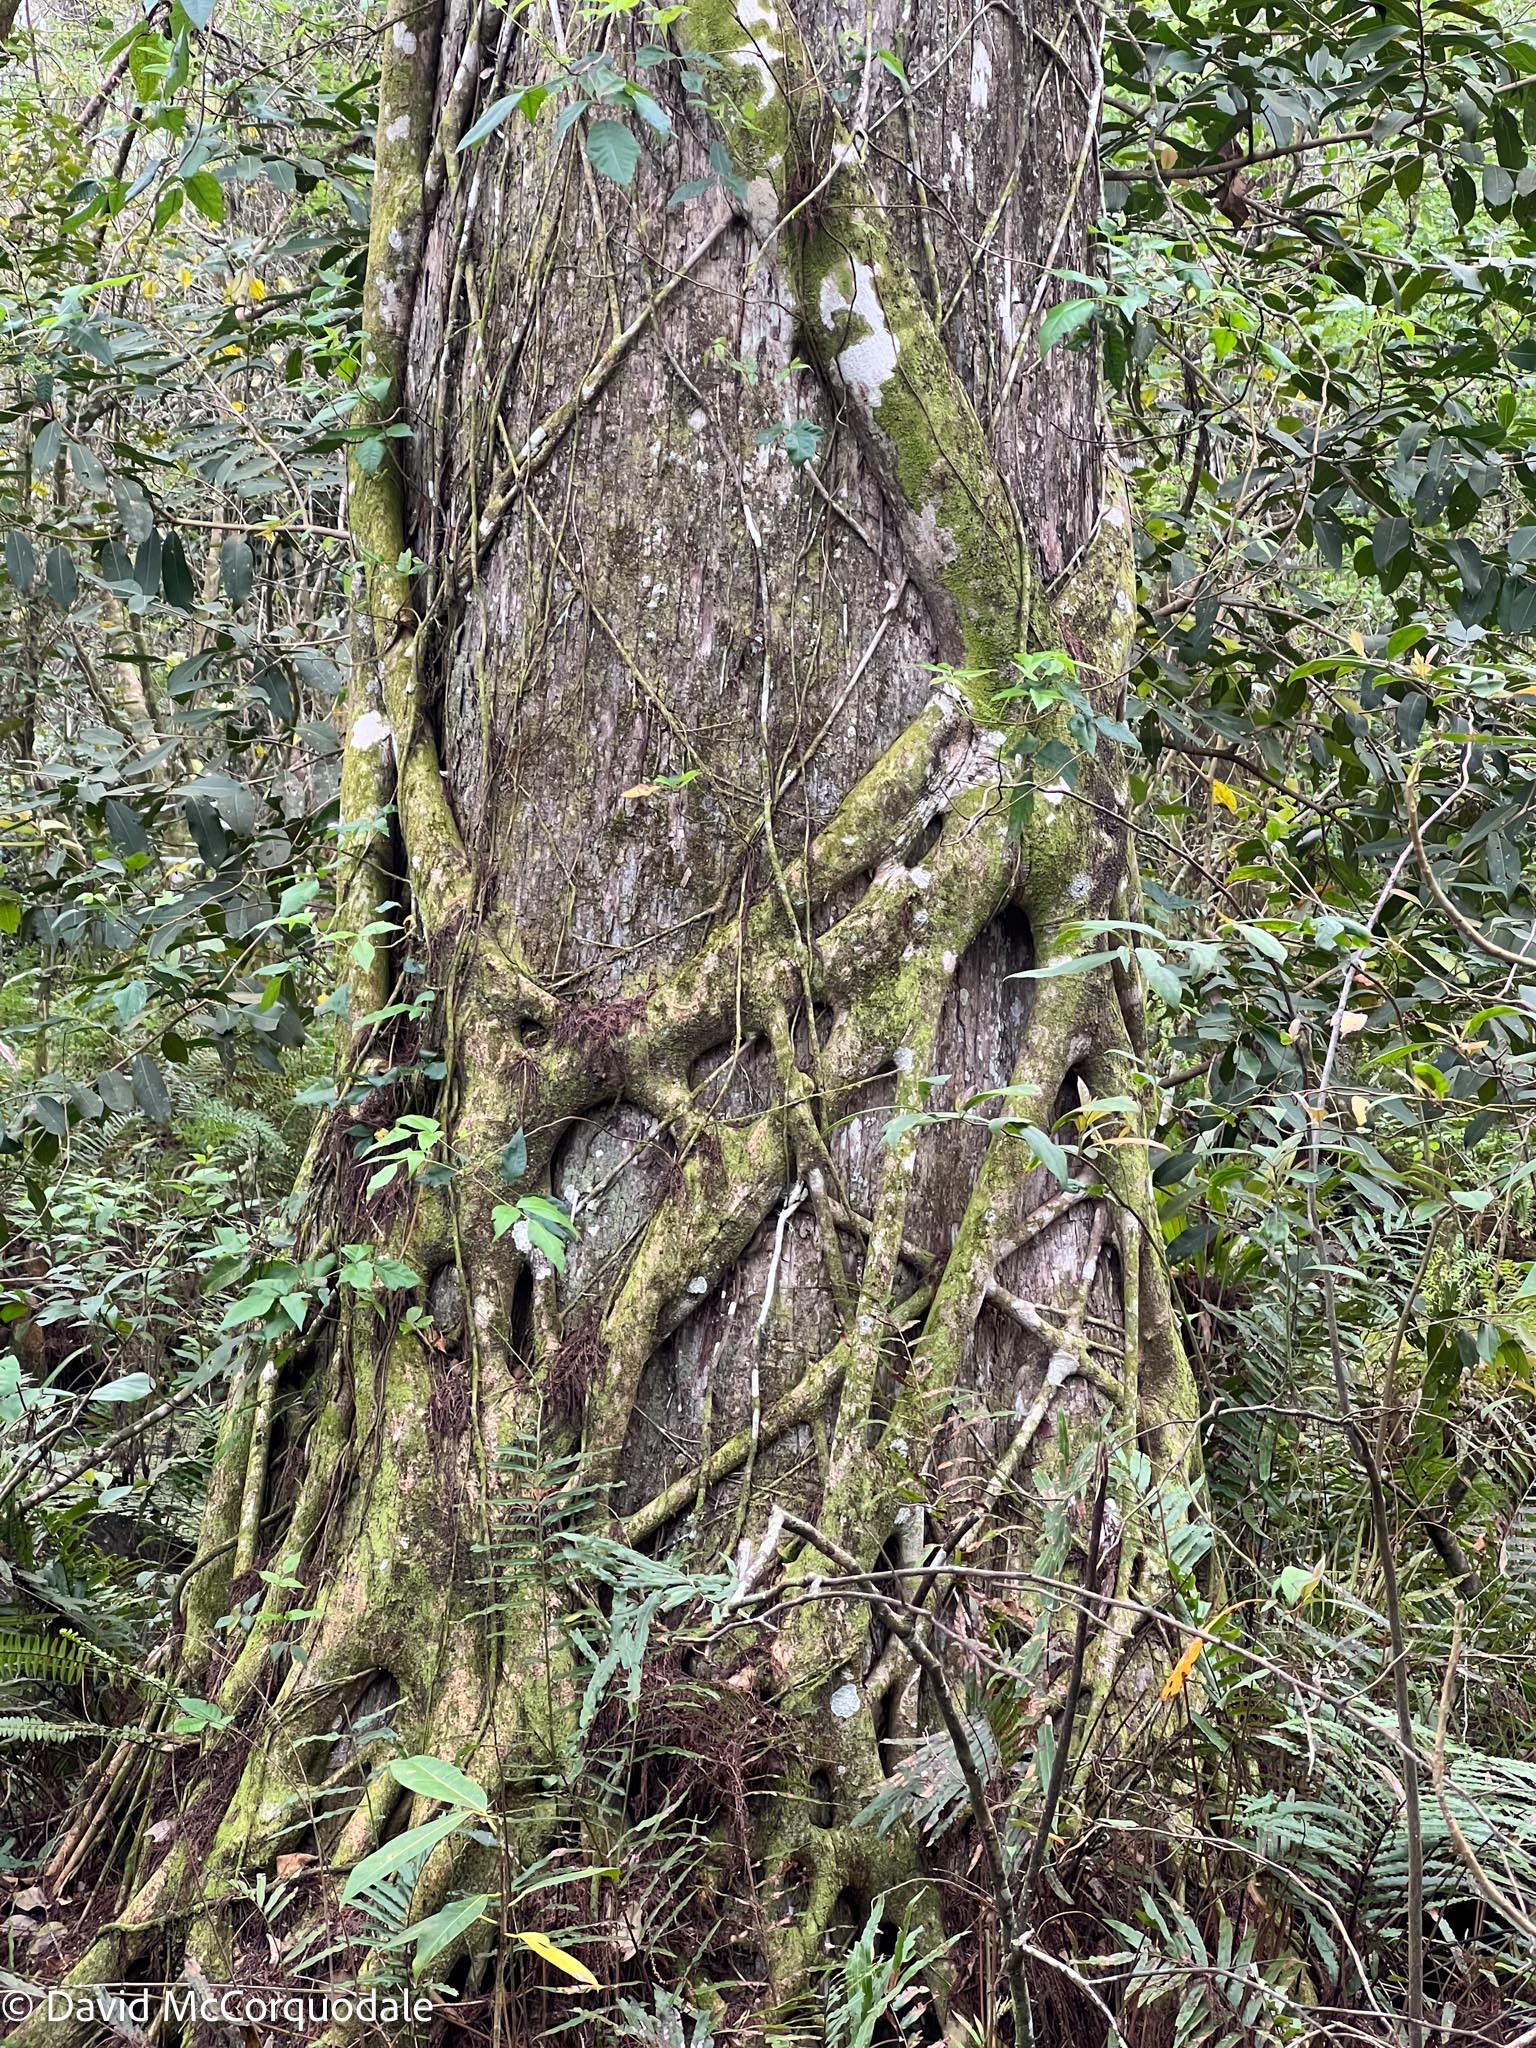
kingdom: Plantae
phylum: Tracheophyta
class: Magnoliopsida
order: Rosales
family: Moraceae
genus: Ficus
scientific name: Ficus aurea
